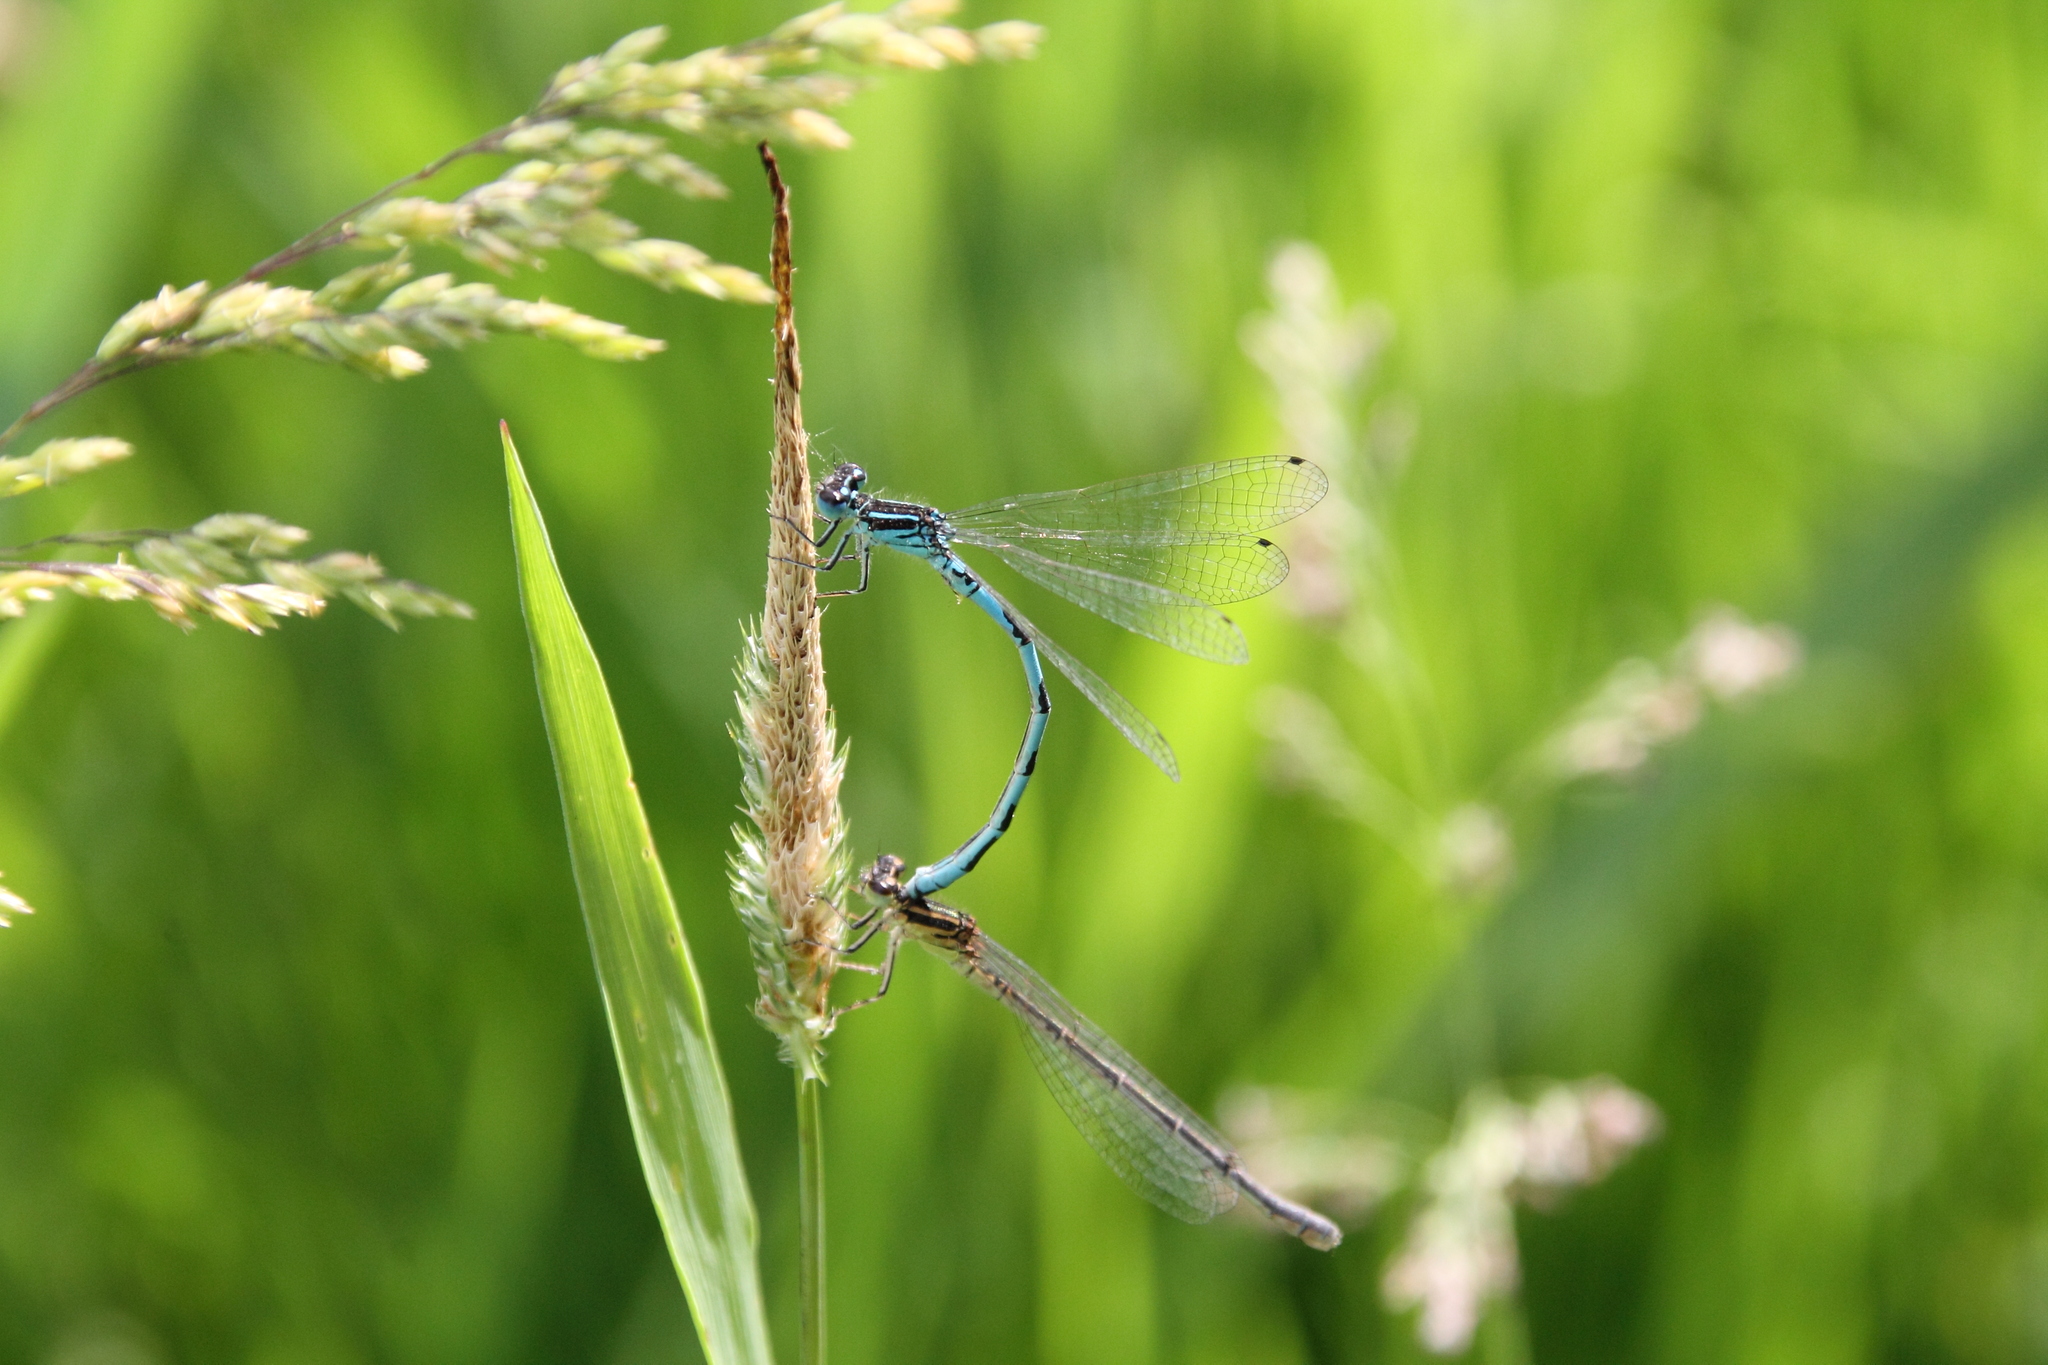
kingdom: Animalia
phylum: Arthropoda
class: Insecta
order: Odonata
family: Coenagrionidae
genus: Coenagrion
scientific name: Coenagrion mercuriale
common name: Southern damselfly
